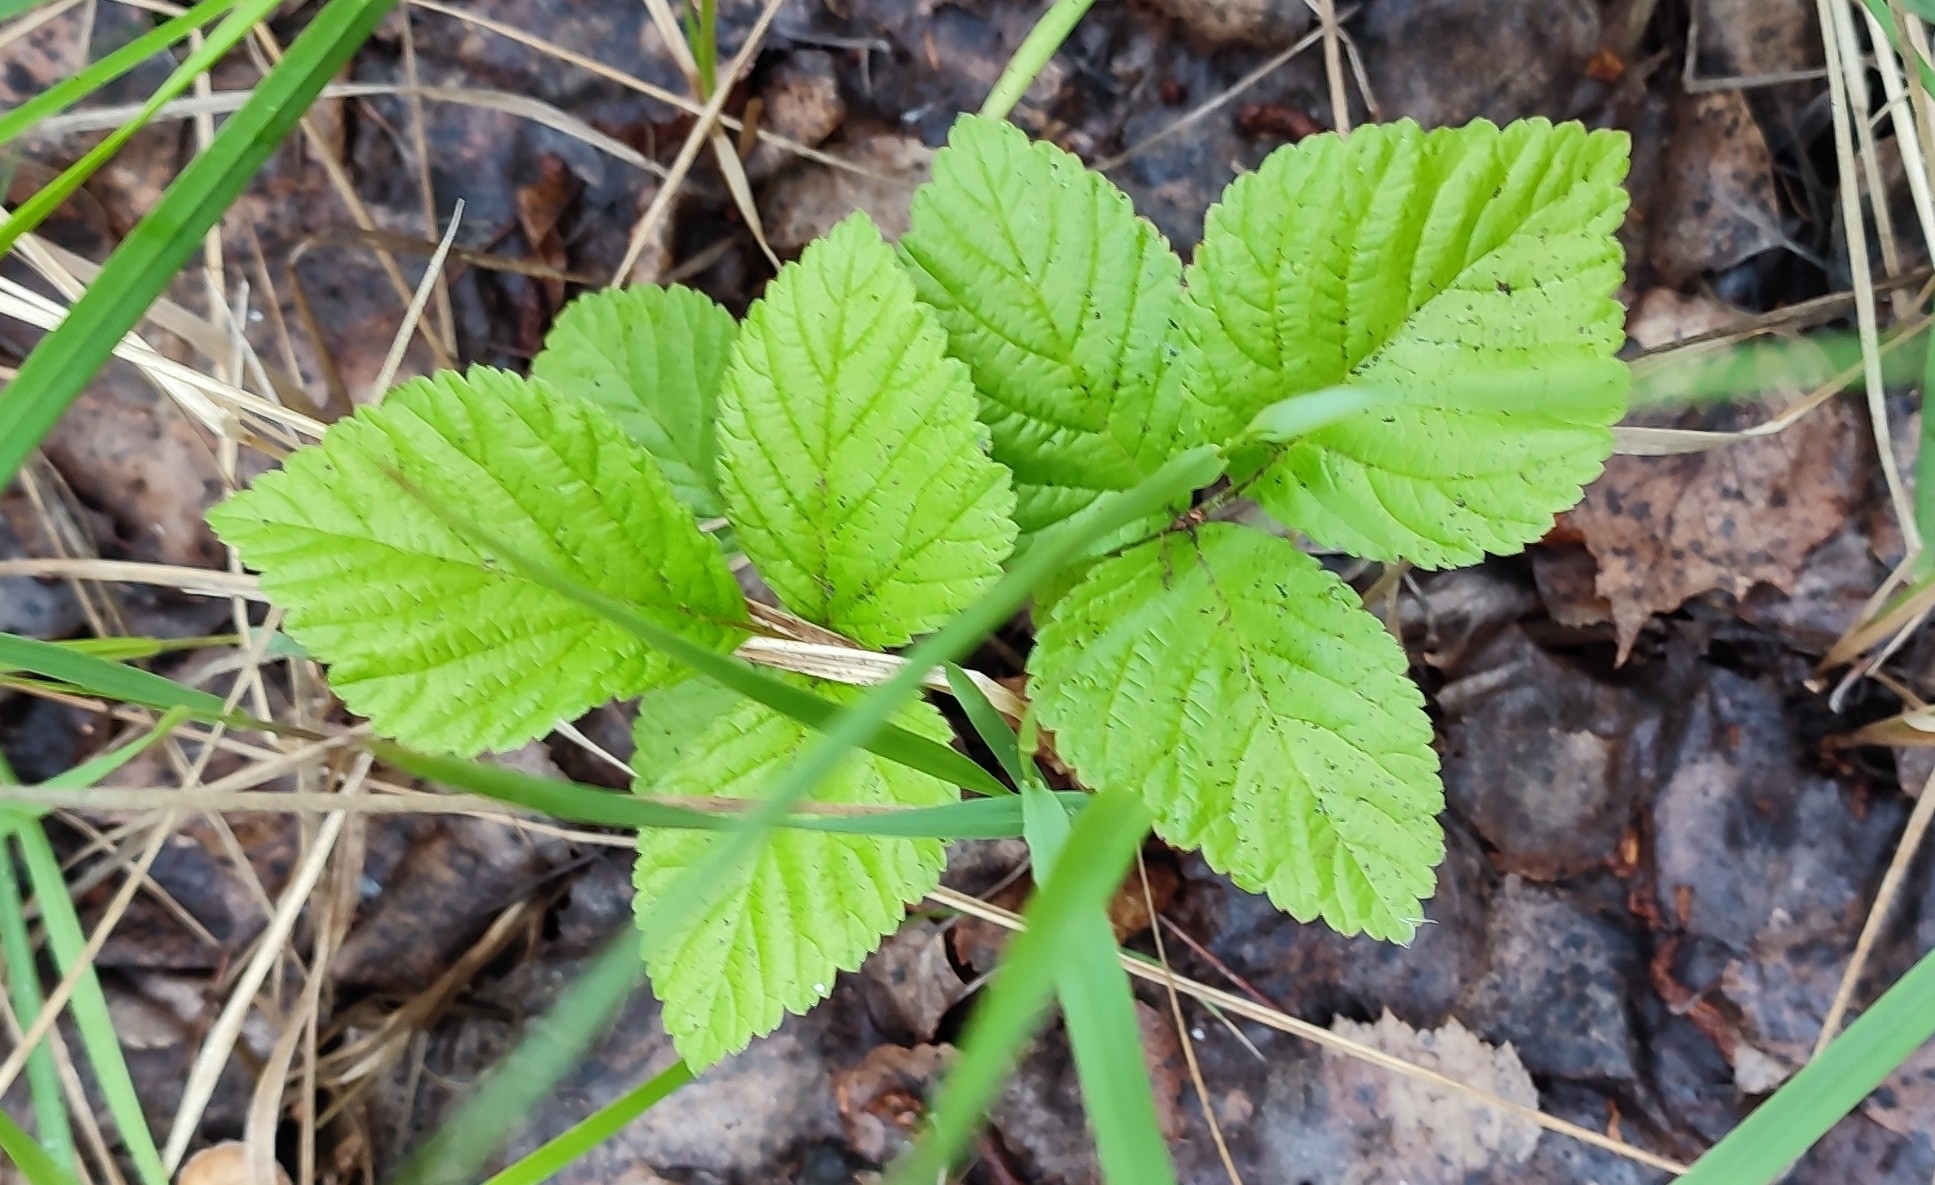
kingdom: Plantae
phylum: Tracheophyta
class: Magnoliopsida
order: Rosales
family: Rosaceae
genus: Rubus
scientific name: Rubus saxatilis
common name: Stone bramble
